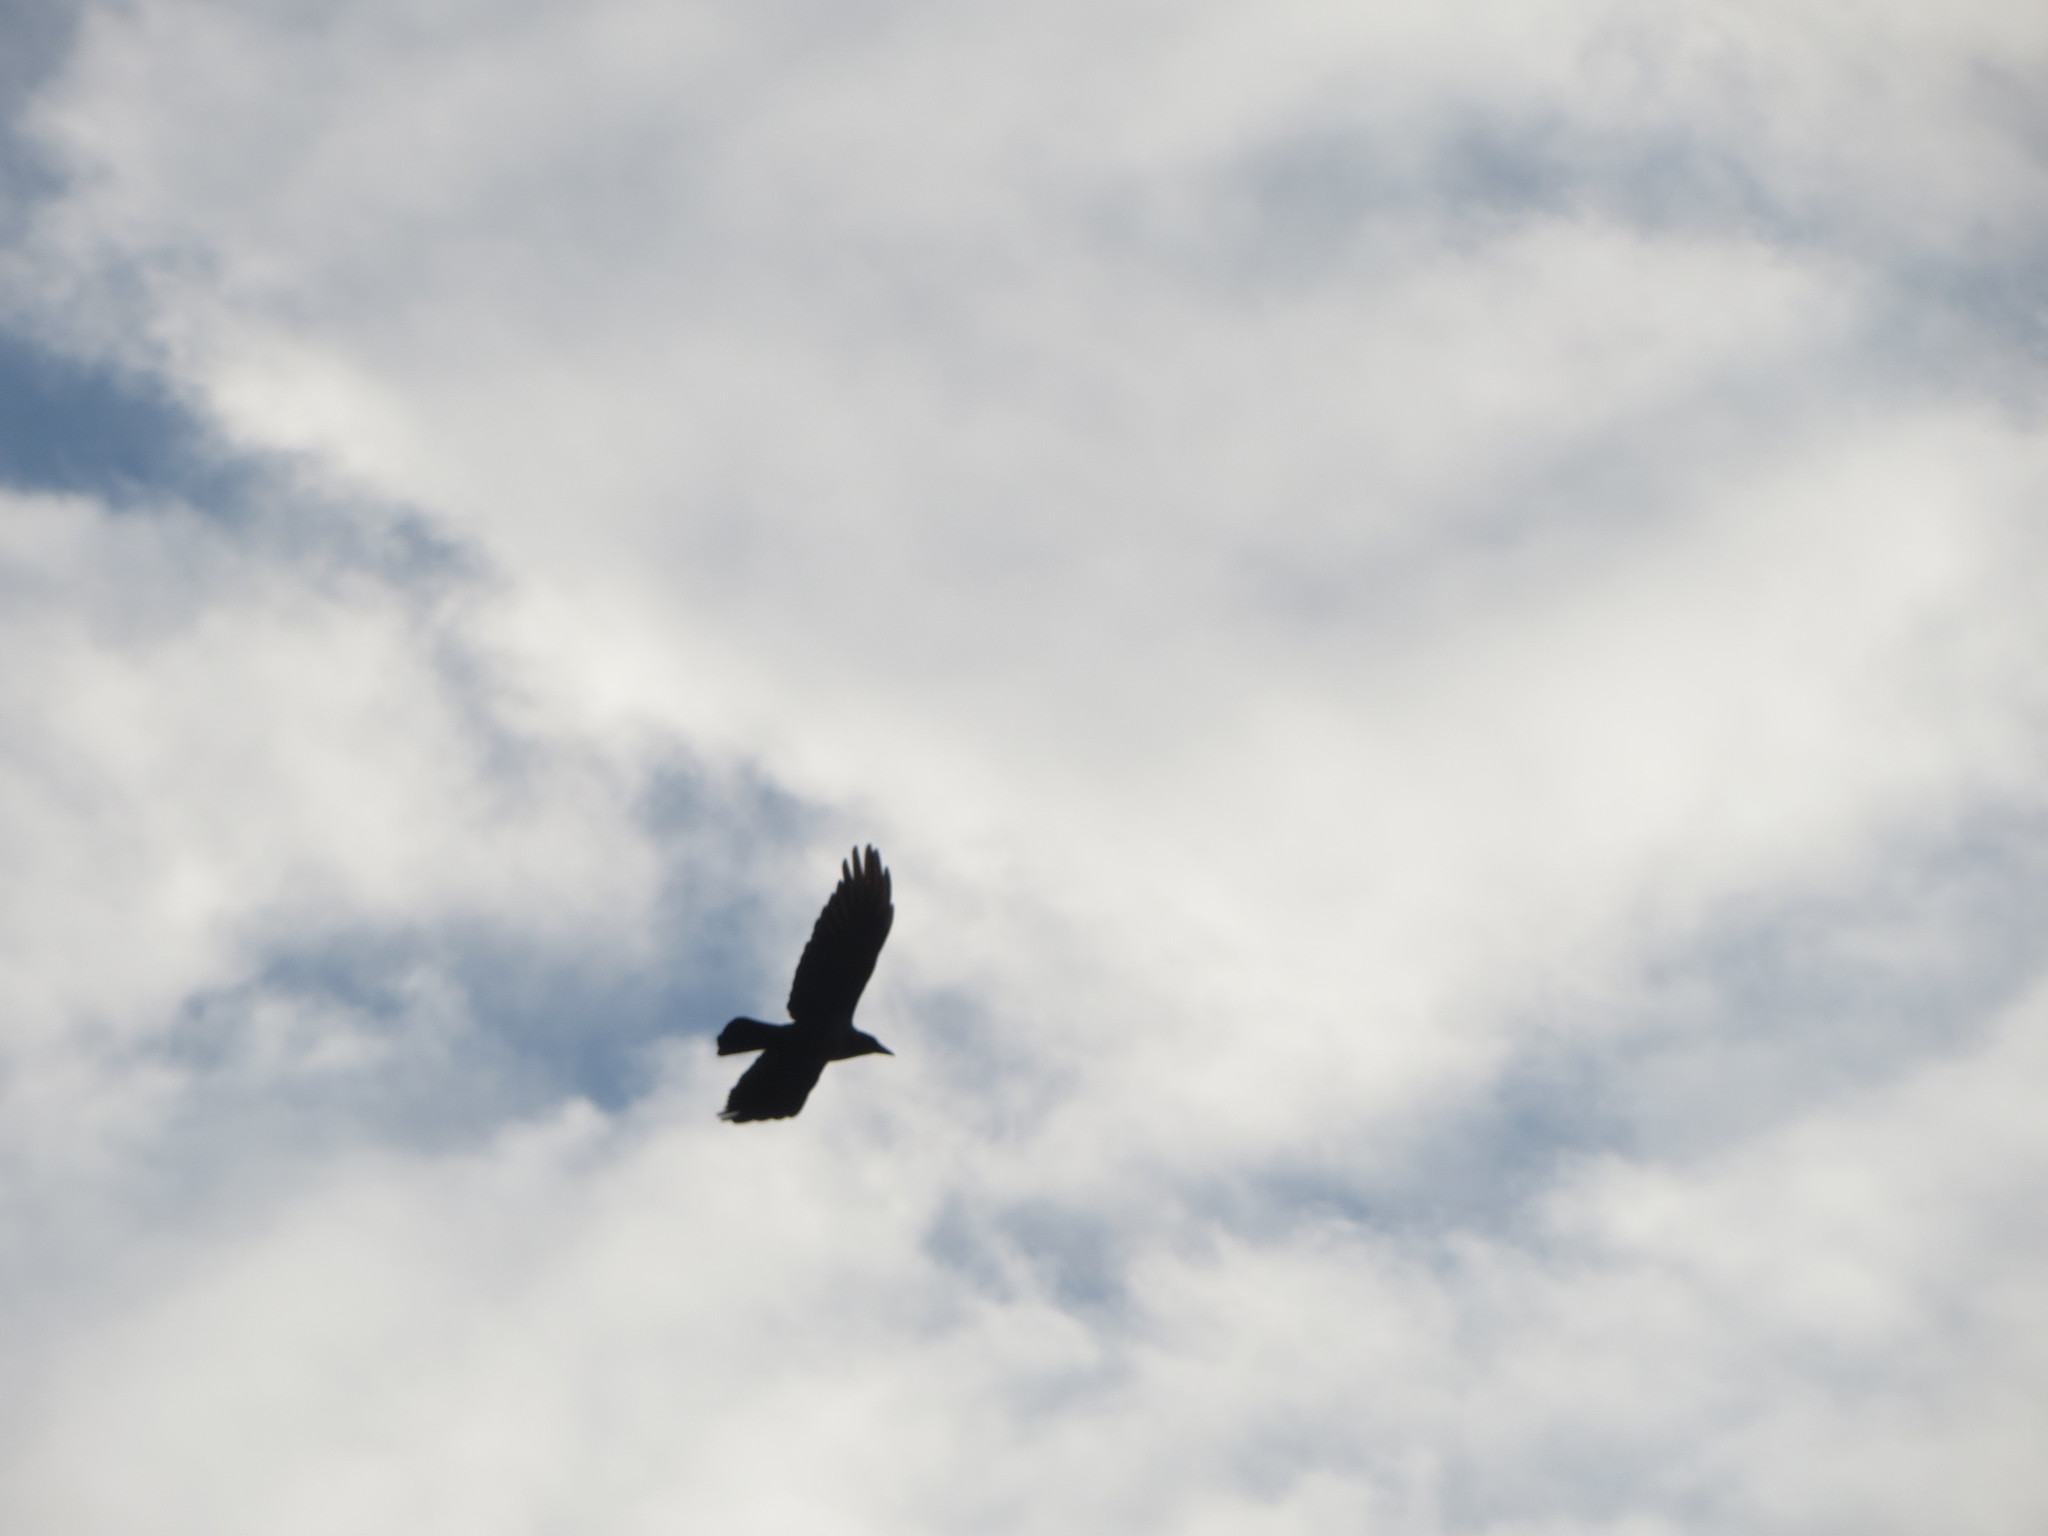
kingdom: Animalia
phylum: Chordata
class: Aves
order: Passeriformes
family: Corvidae
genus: Corvus
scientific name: Corvus corax
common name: Common raven
